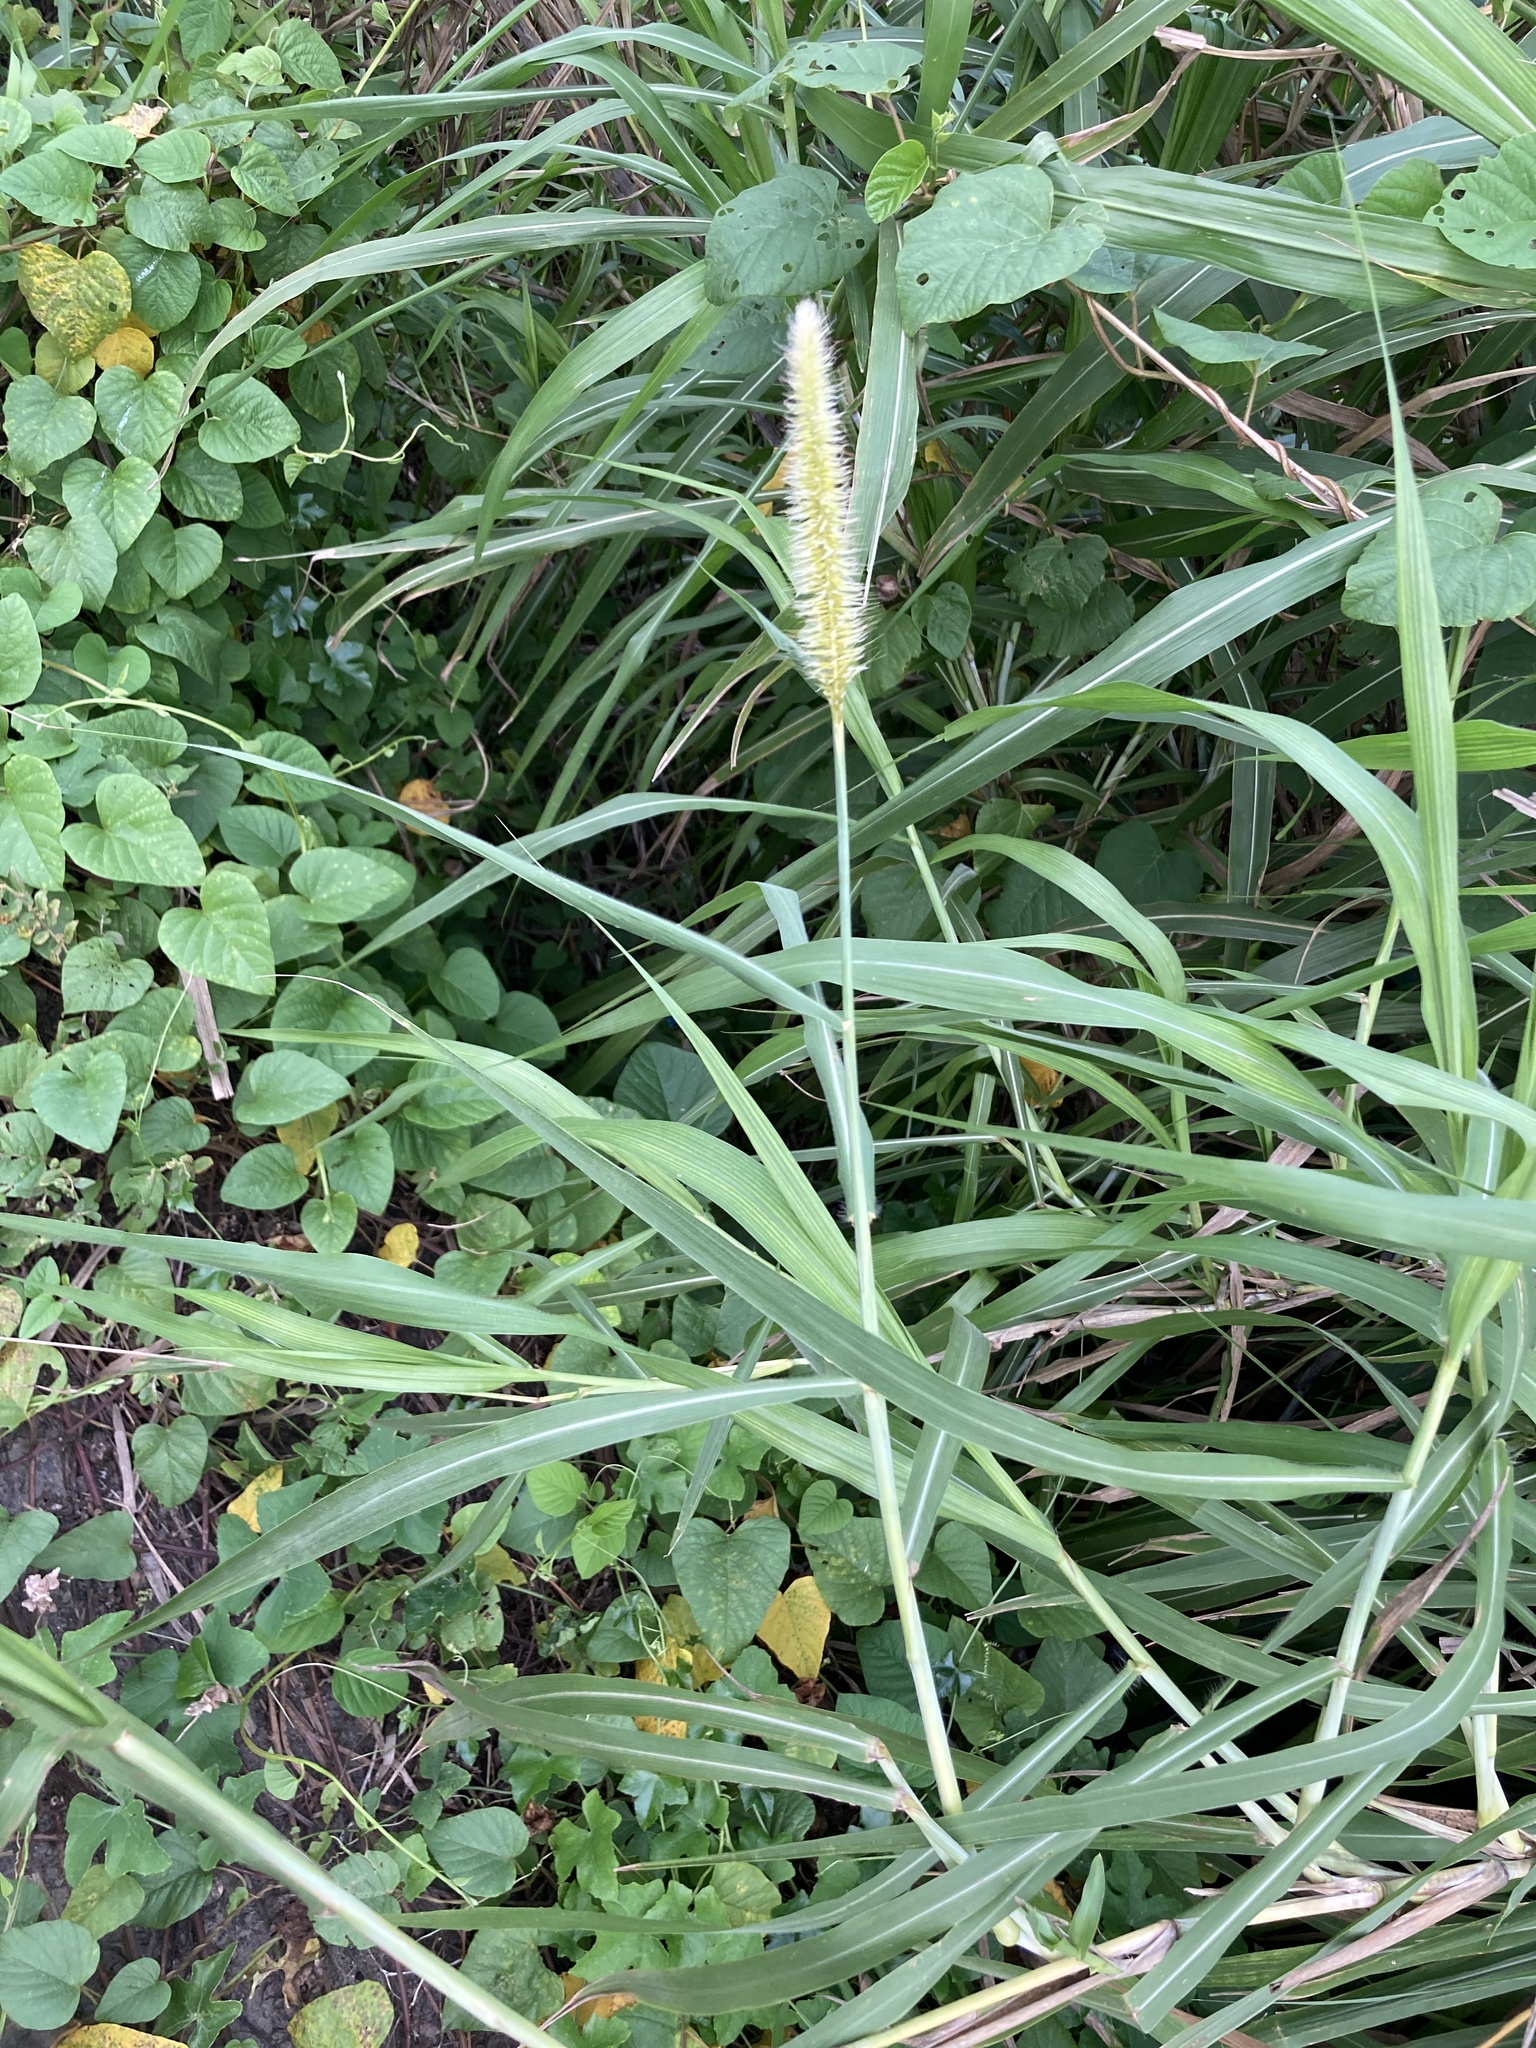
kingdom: Plantae
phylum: Tracheophyta
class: Liliopsida
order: Poales
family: Poaceae
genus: Cenchrus
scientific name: Cenchrus purpureus
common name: Elephant grass
